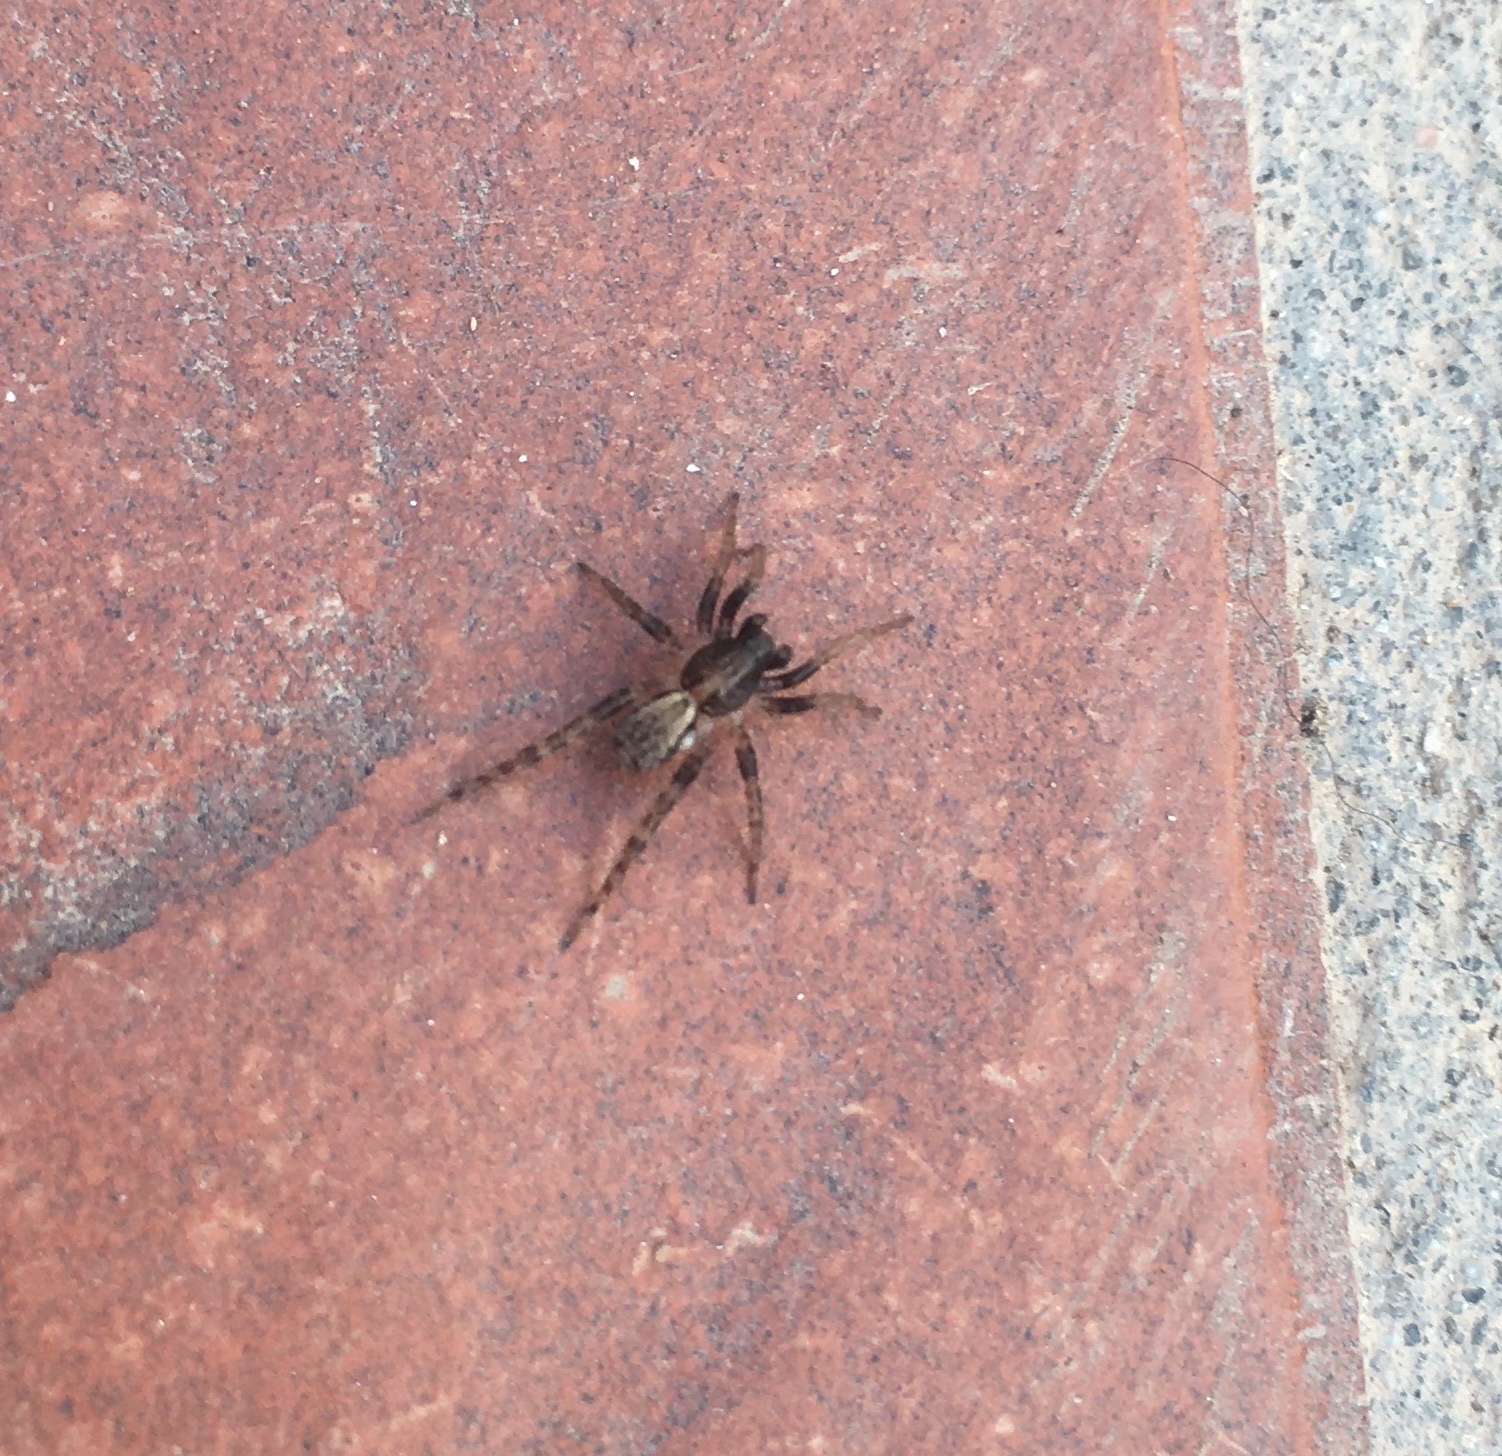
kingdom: Animalia
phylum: Arthropoda
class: Arachnida
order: Araneae
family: Lycosidae
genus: Abaycosa
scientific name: Abaycosa nanica
